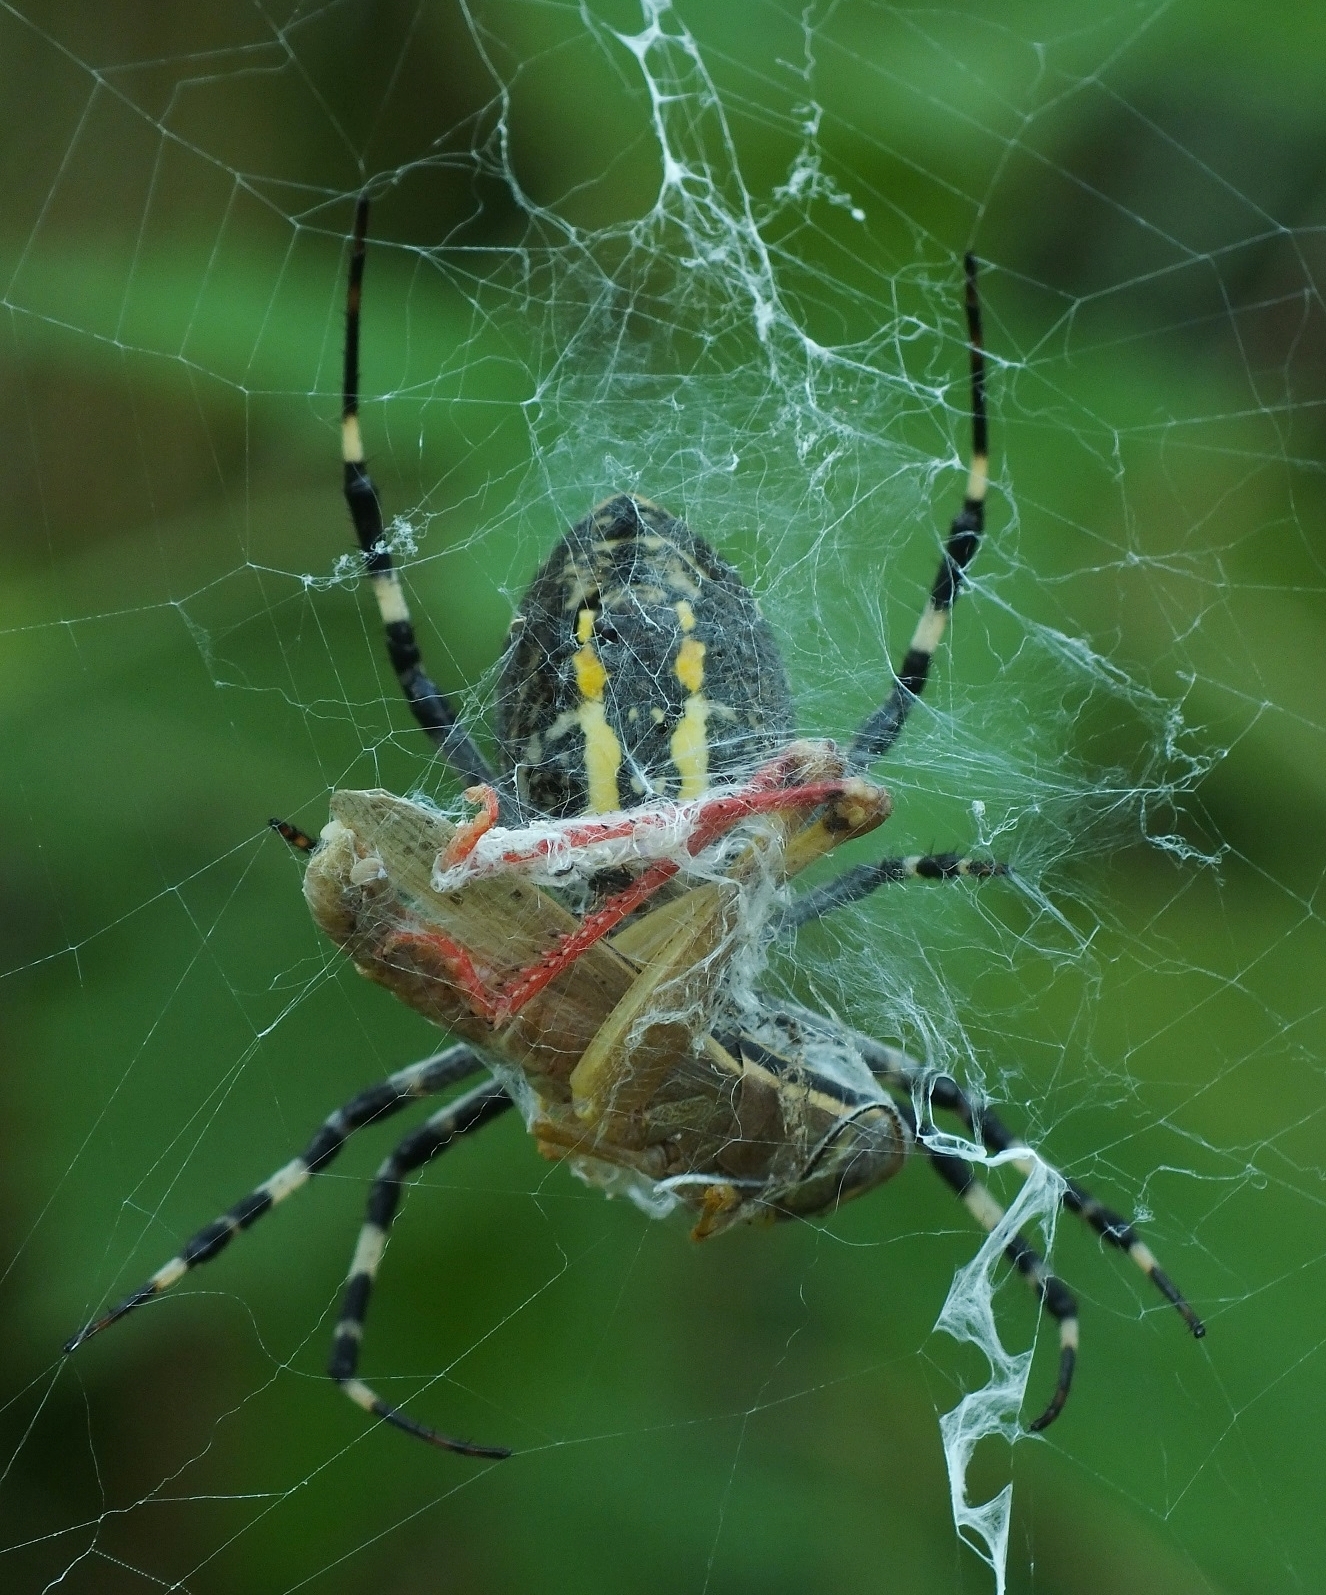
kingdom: Animalia
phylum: Arthropoda
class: Arachnida
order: Araneae
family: Araneidae
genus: Argiope
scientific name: Argiope bruennichi
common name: Wasp spider
